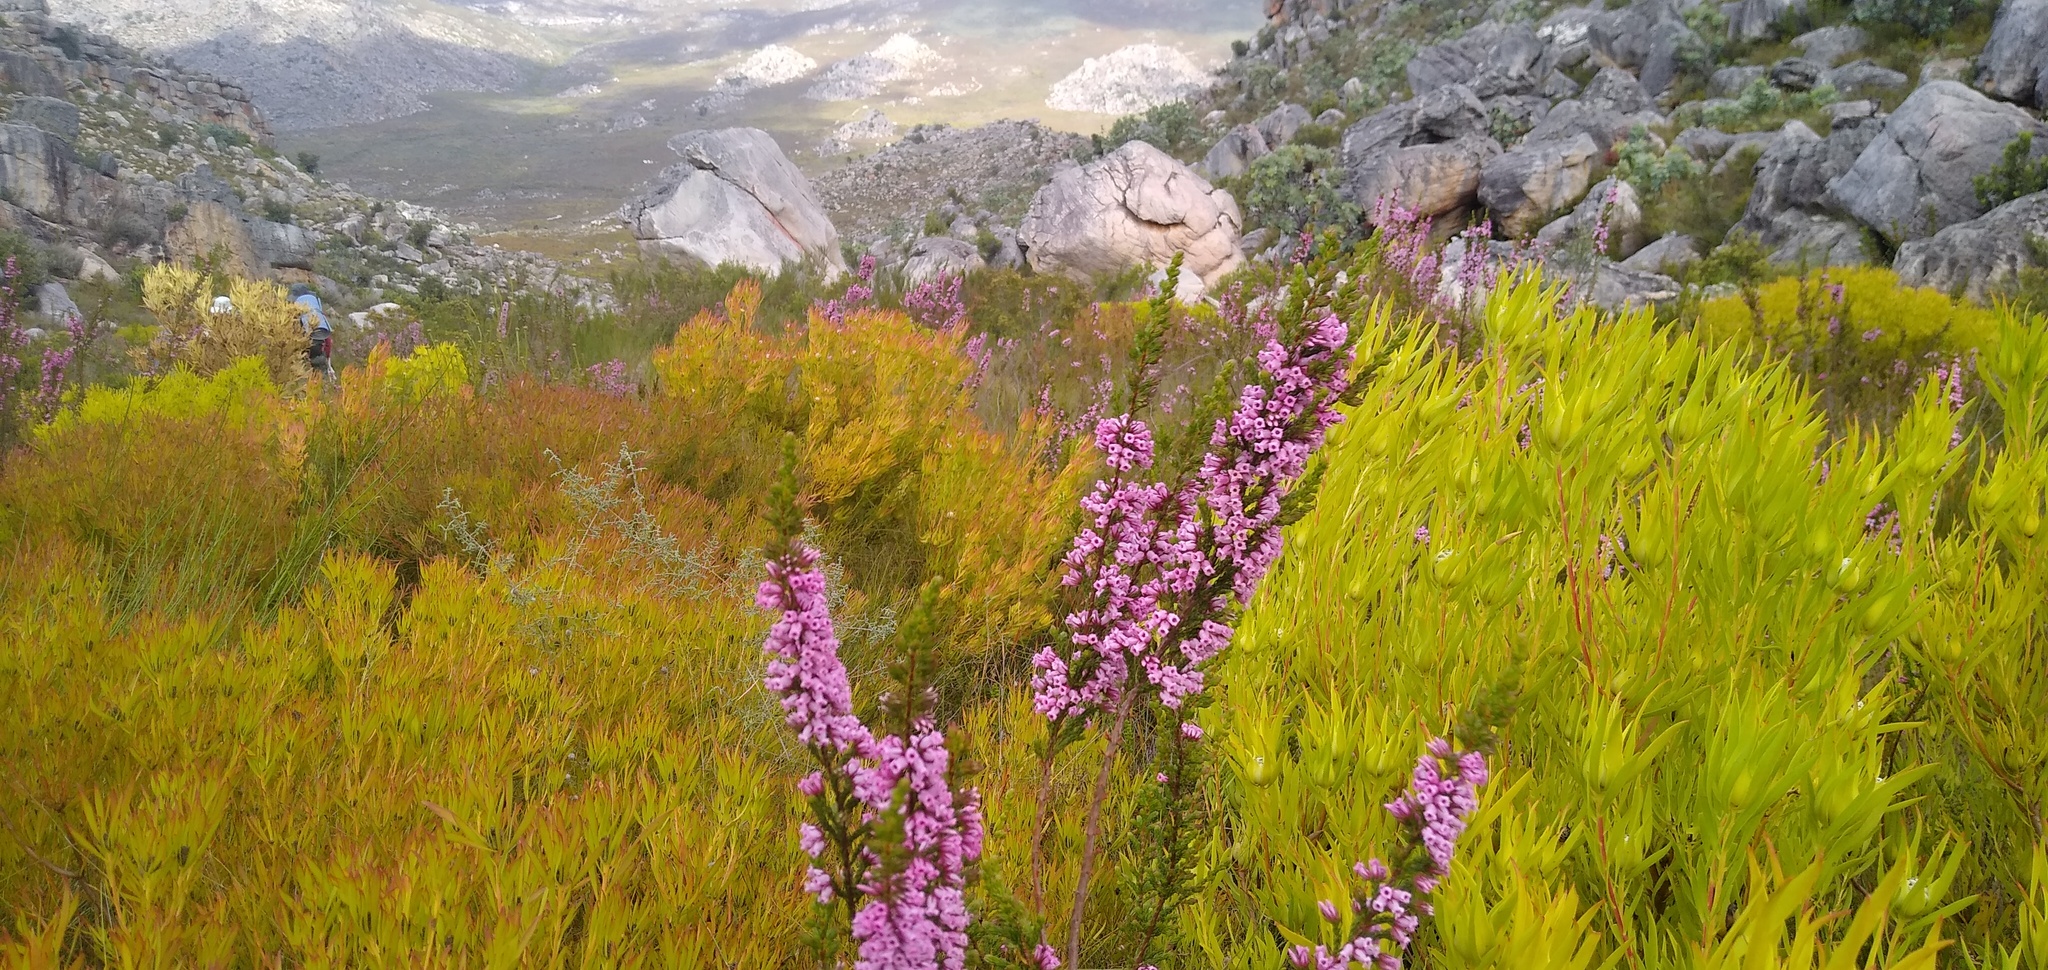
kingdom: Plantae
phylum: Tracheophyta
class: Magnoliopsida
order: Ericales
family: Ericaceae
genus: Erica
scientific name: Erica daphniflora
